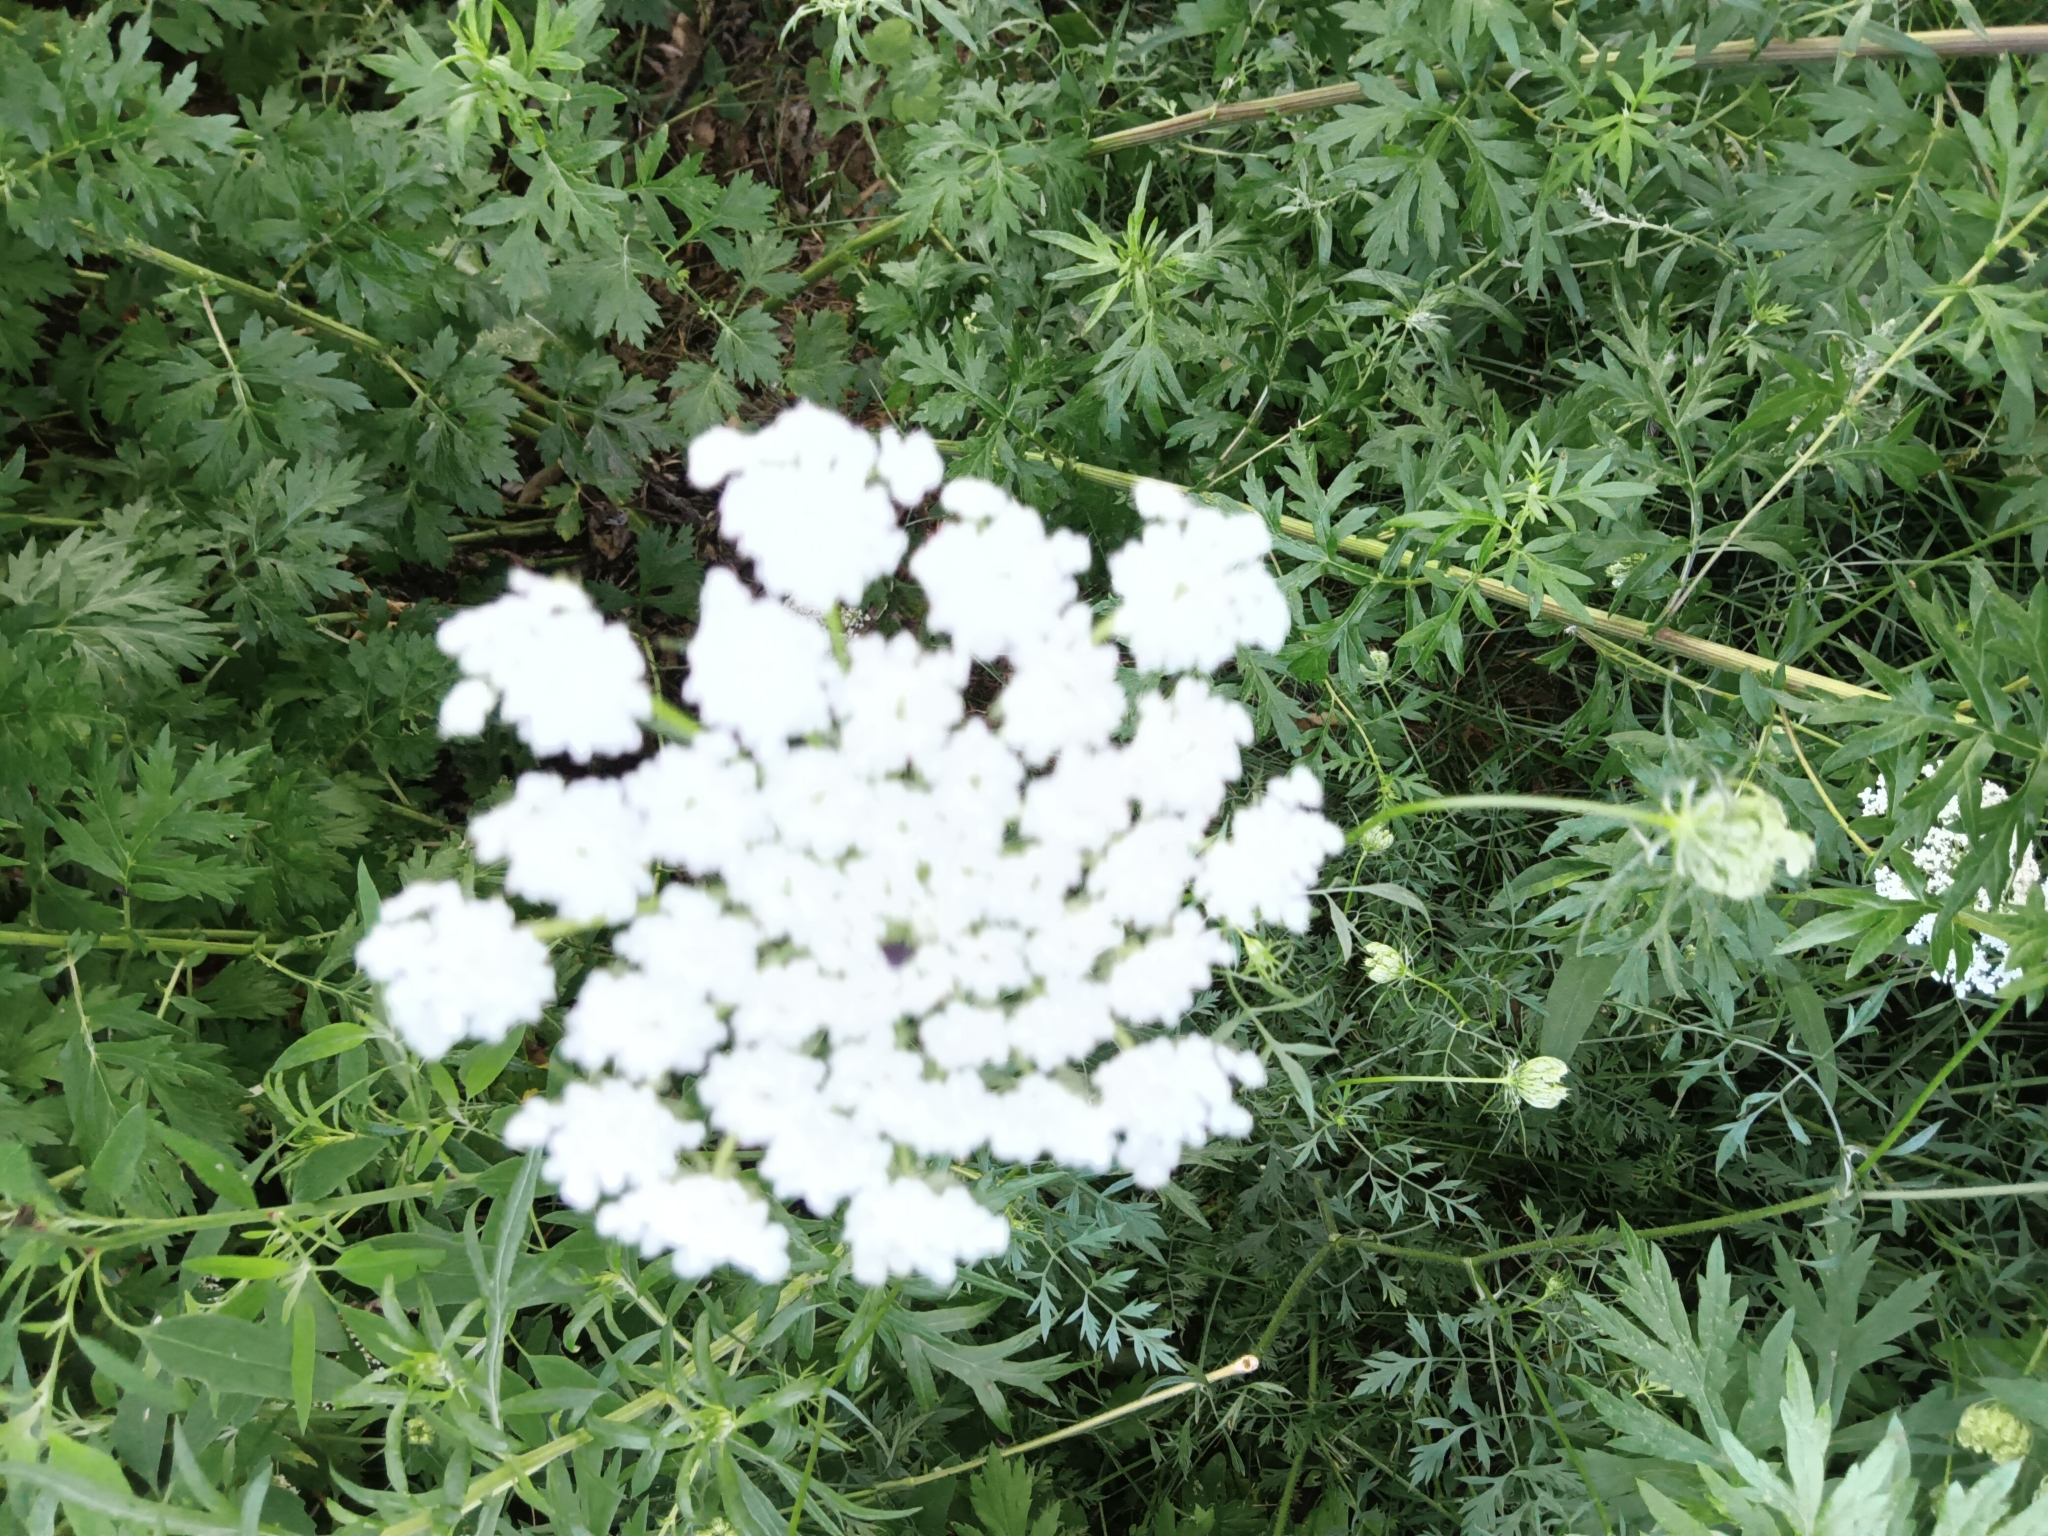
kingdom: Plantae
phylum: Tracheophyta
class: Magnoliopsida
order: Apiales
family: Apiaceae
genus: Daucus
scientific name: Daucus carota
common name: Wild carrot
